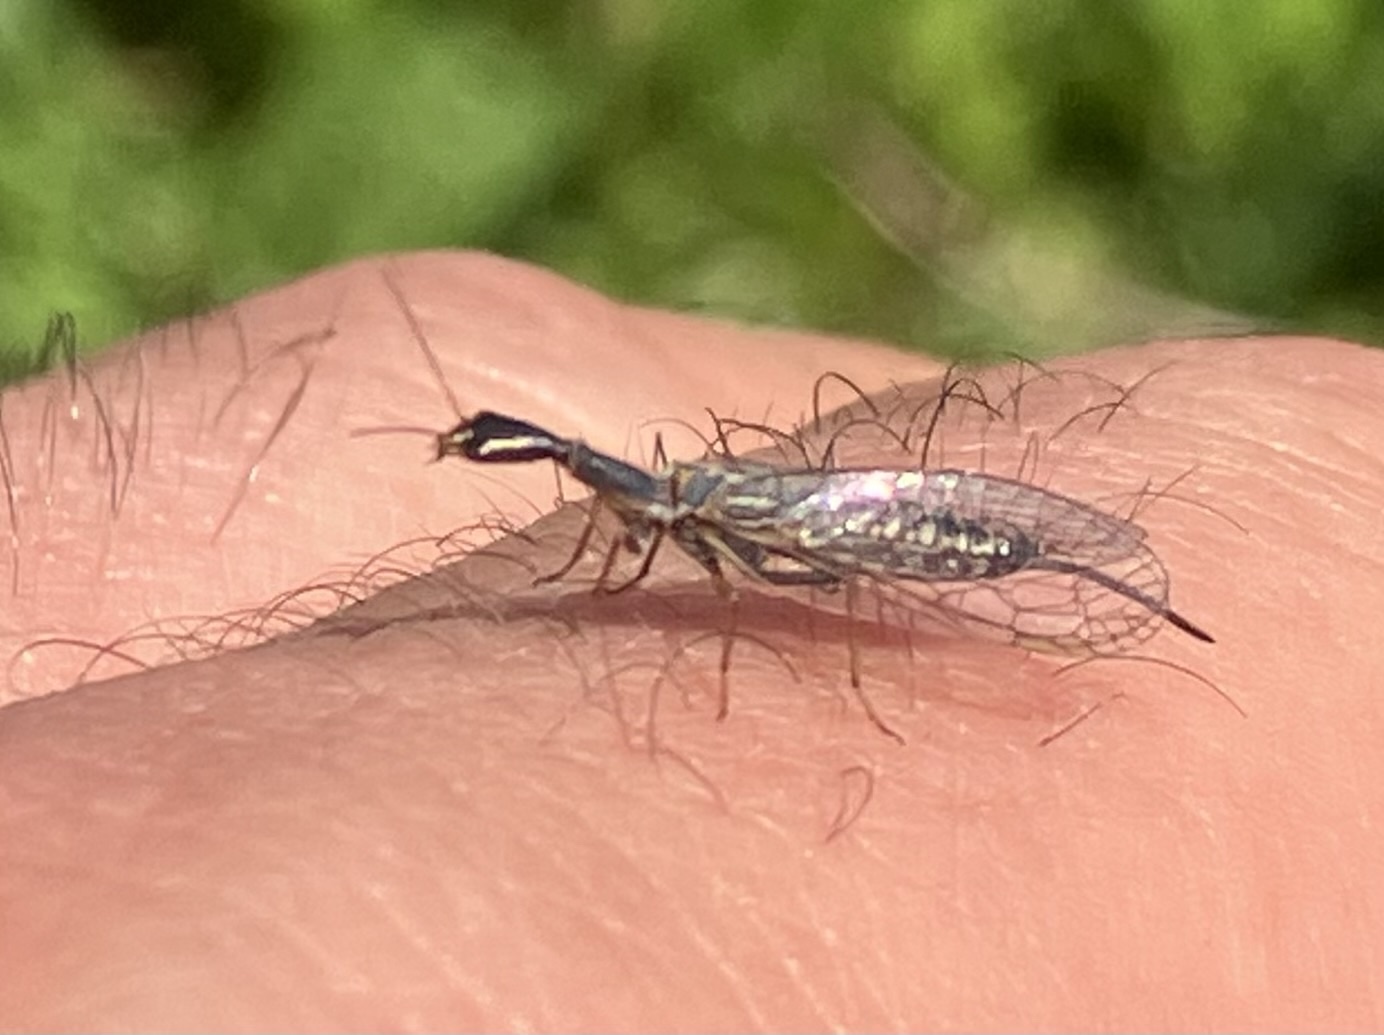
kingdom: Animalia
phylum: Arthropoda
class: Insecta
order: Raphidioptera
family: Raphidiidae
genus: Xanthostigma
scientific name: Xanthostigma xanthostigma
